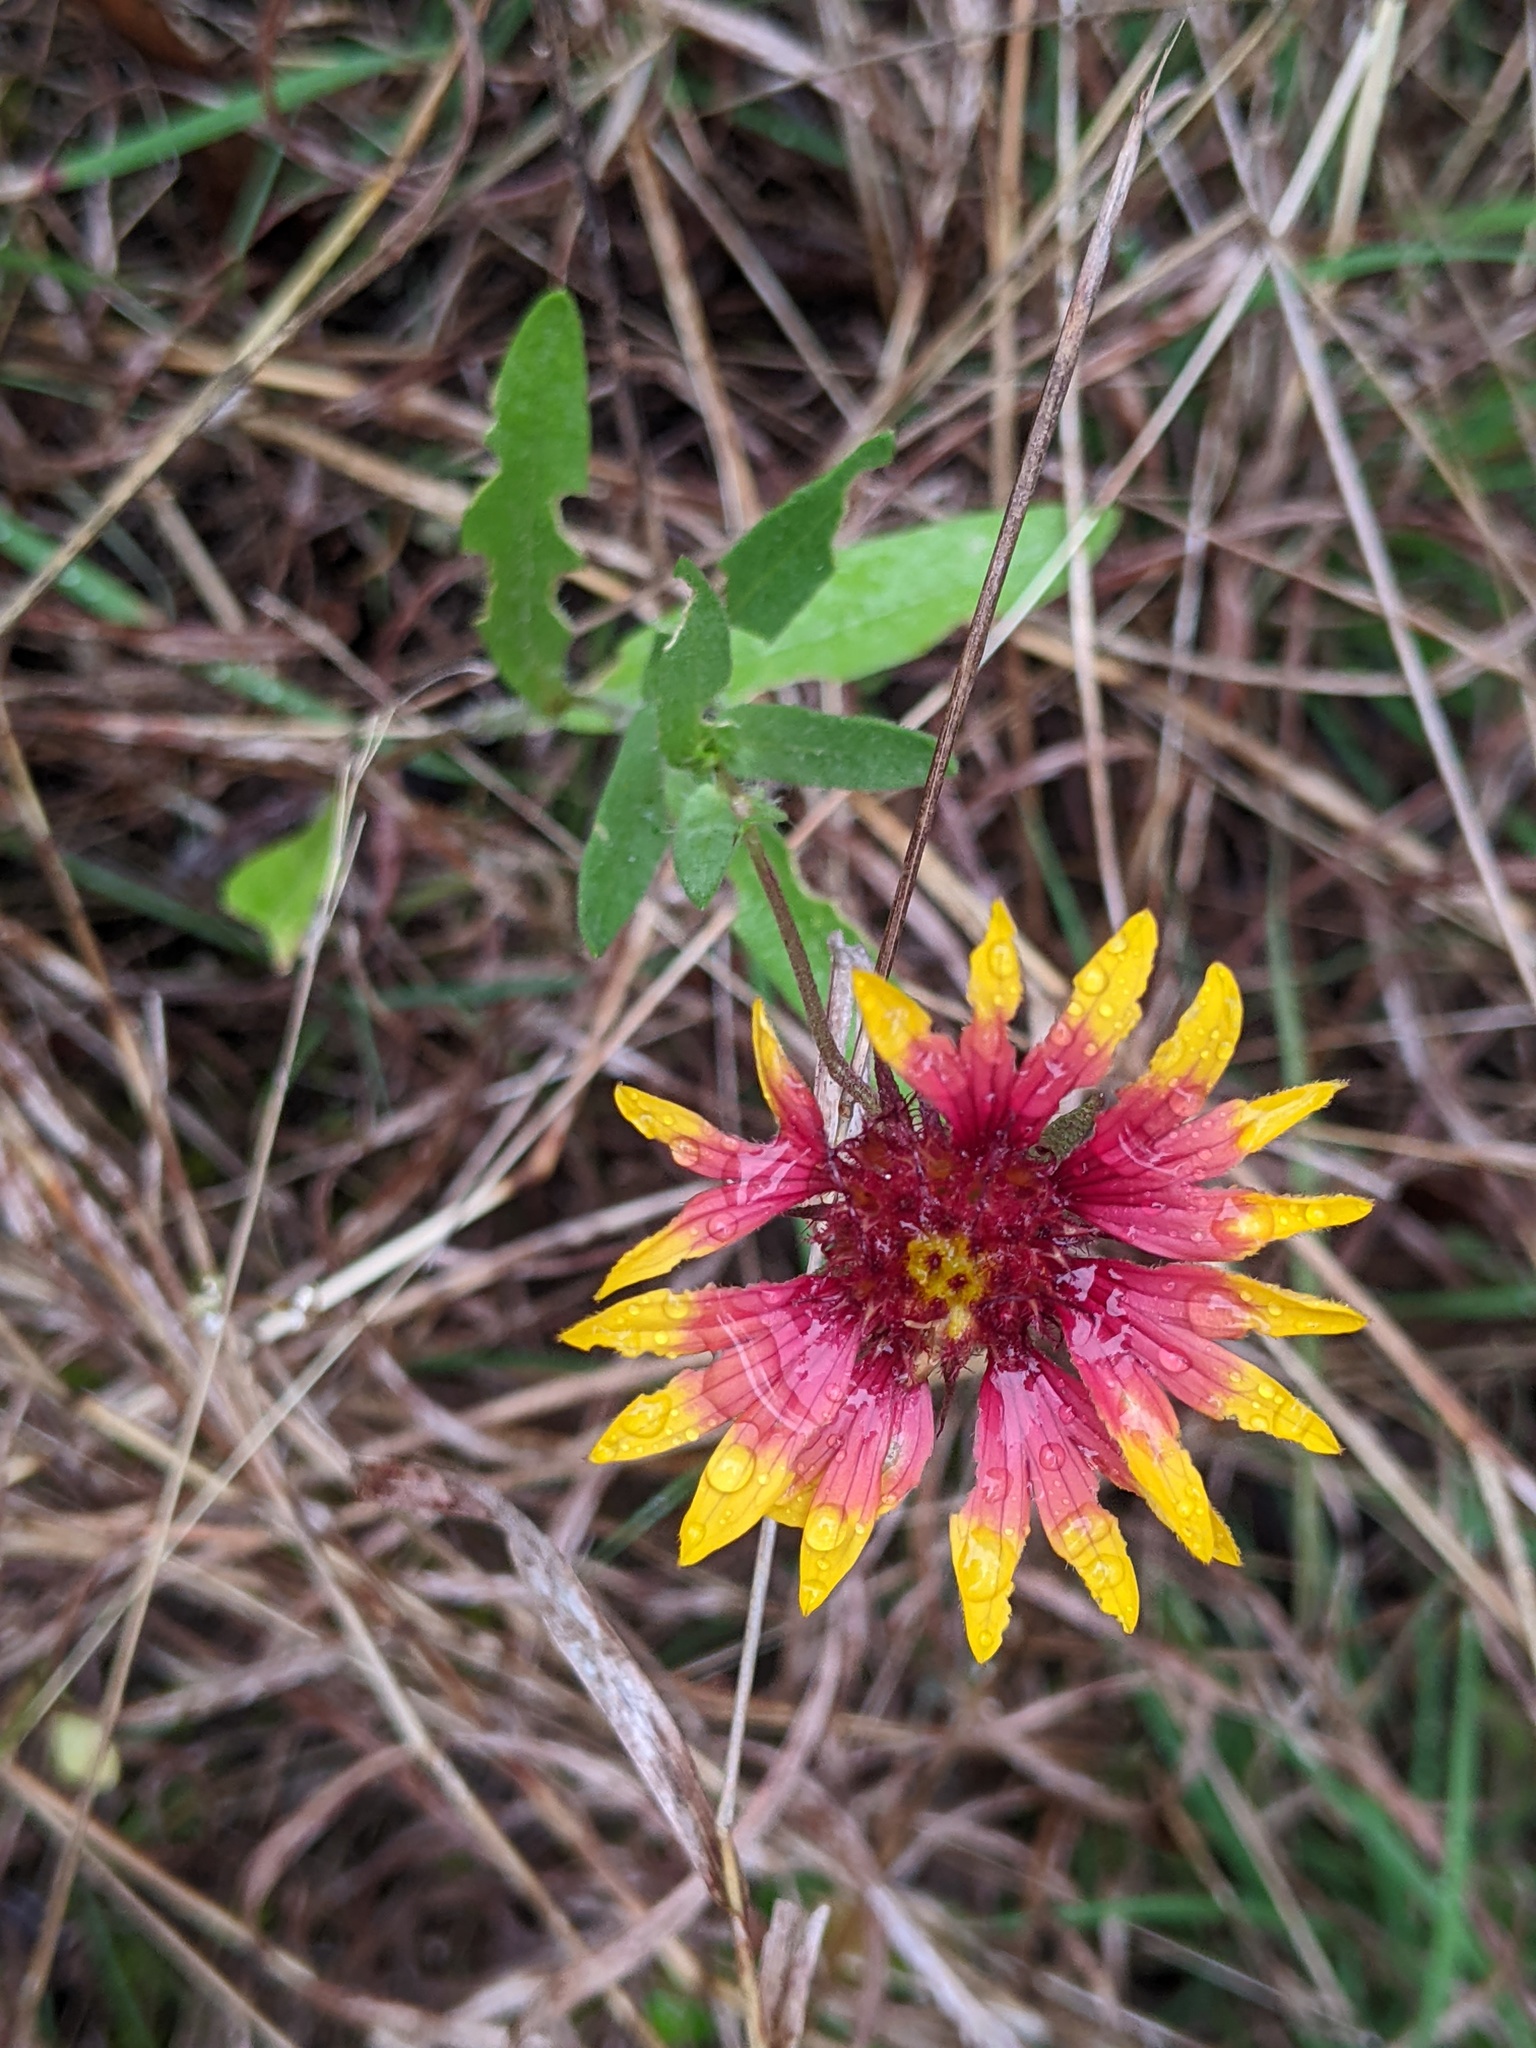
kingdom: Plantae
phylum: Tracheophyta
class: Magnoliopsida
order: Asterales
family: Asteraceae
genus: Gaillardia
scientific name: Gaillardia pulchella
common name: Firewheel
